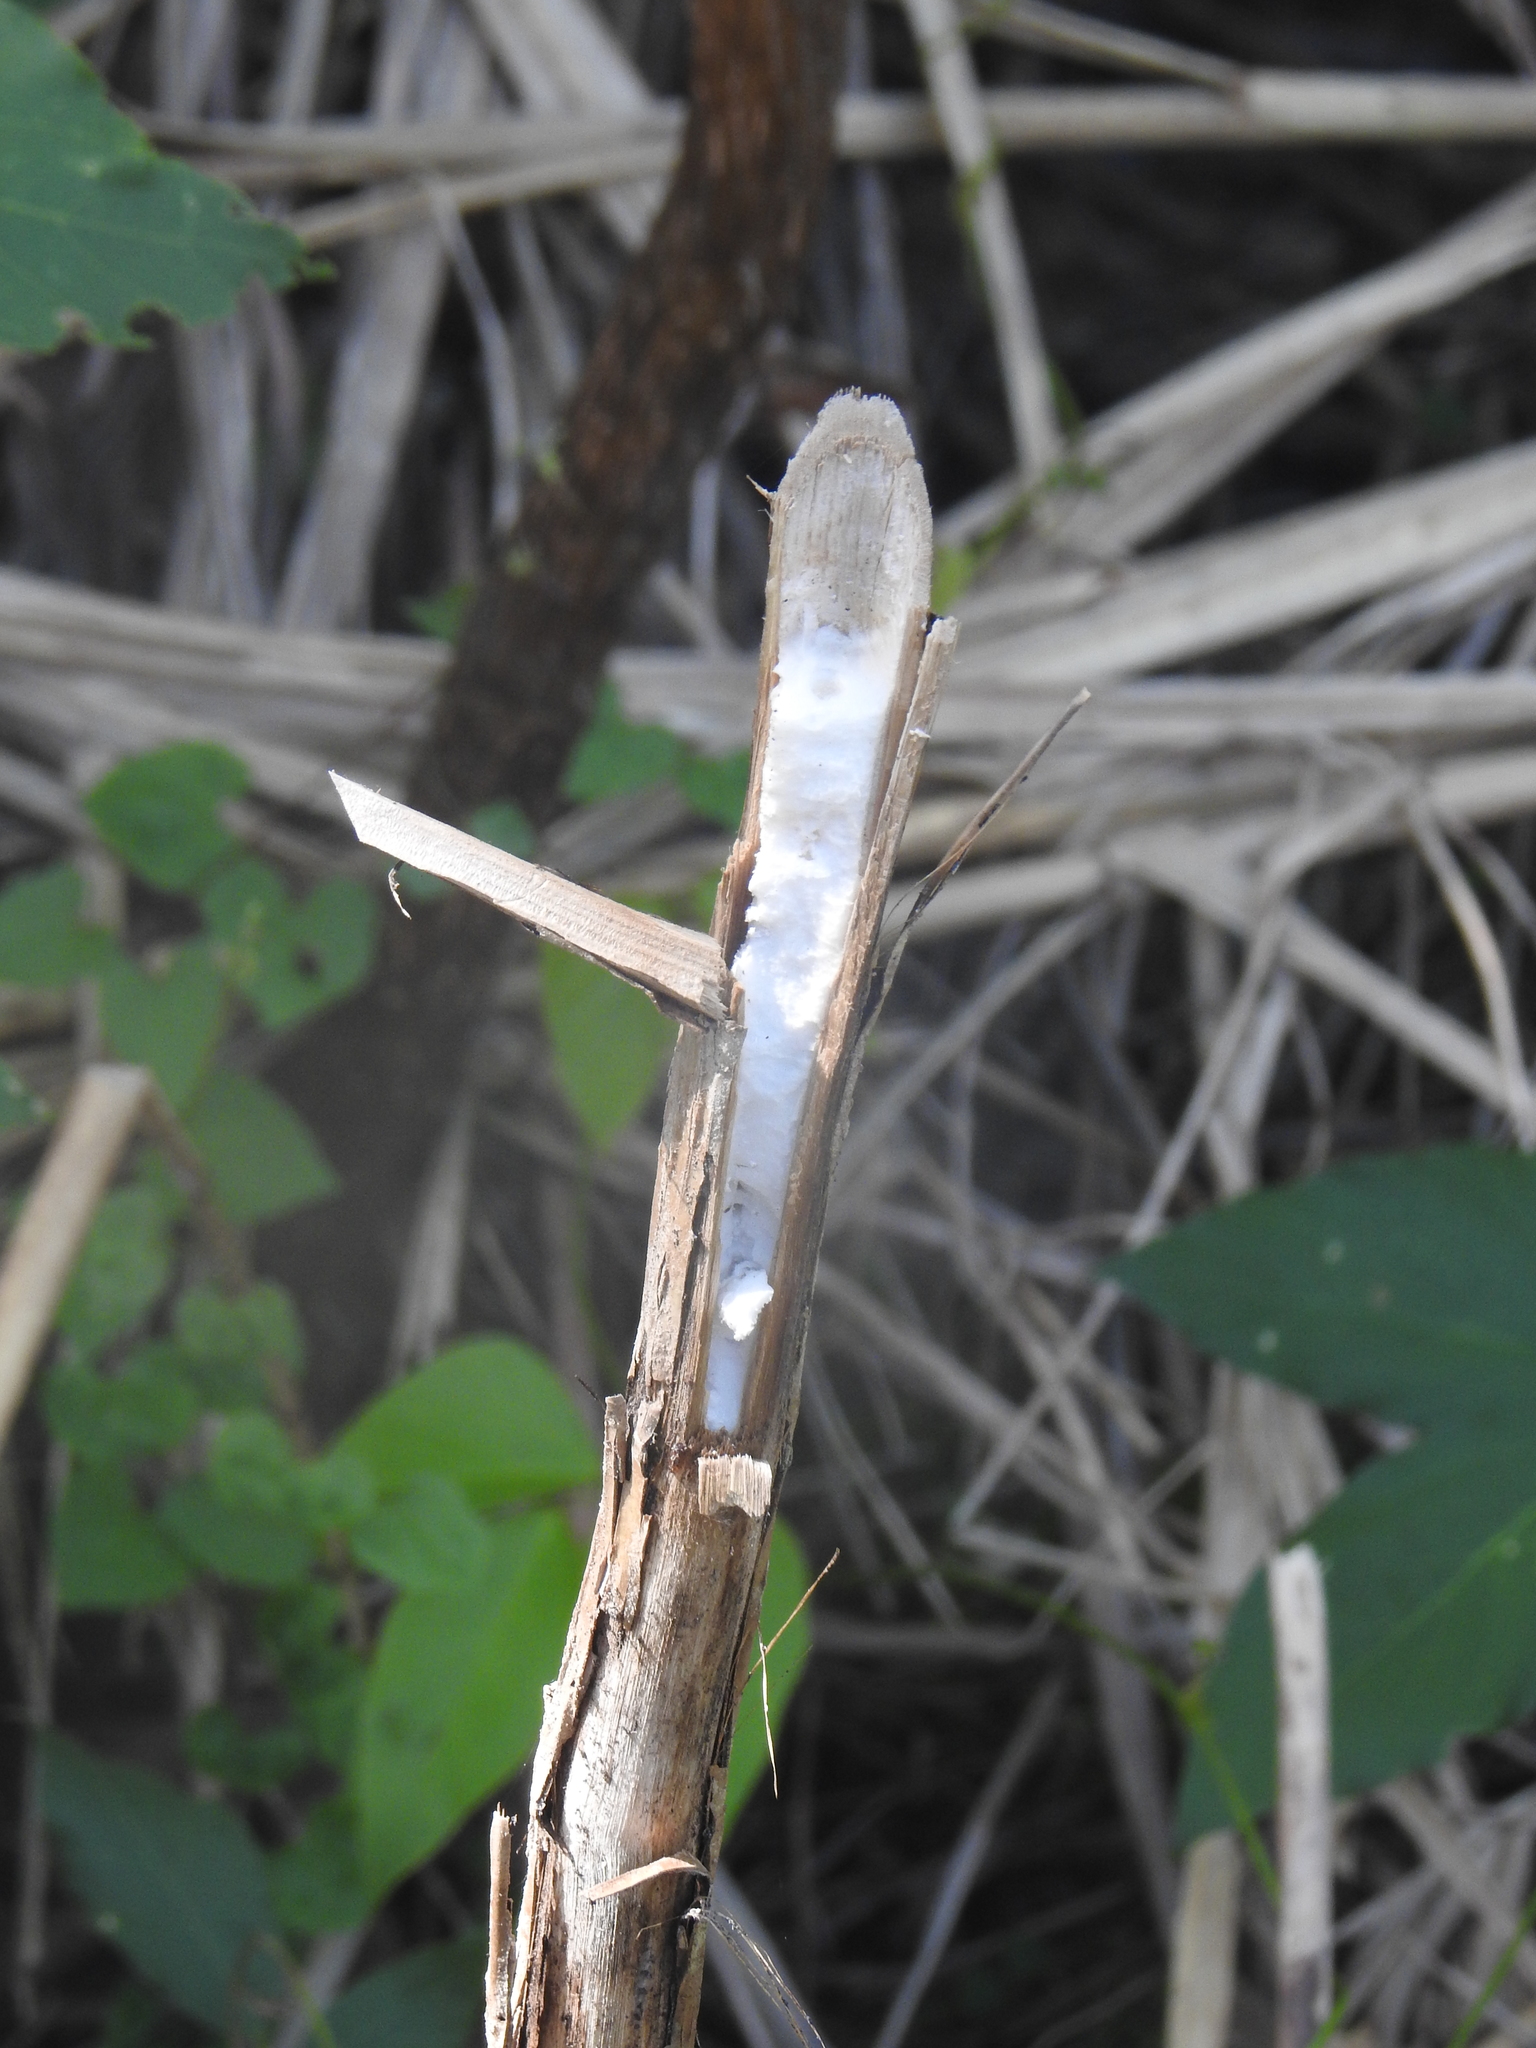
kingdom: Plantae
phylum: Tracheophyta
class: Magnoliopsida
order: Apiales
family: Araliaceae
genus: Tetrapanax
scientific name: Tetrapanax papyrifer
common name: Rice-paper plant
